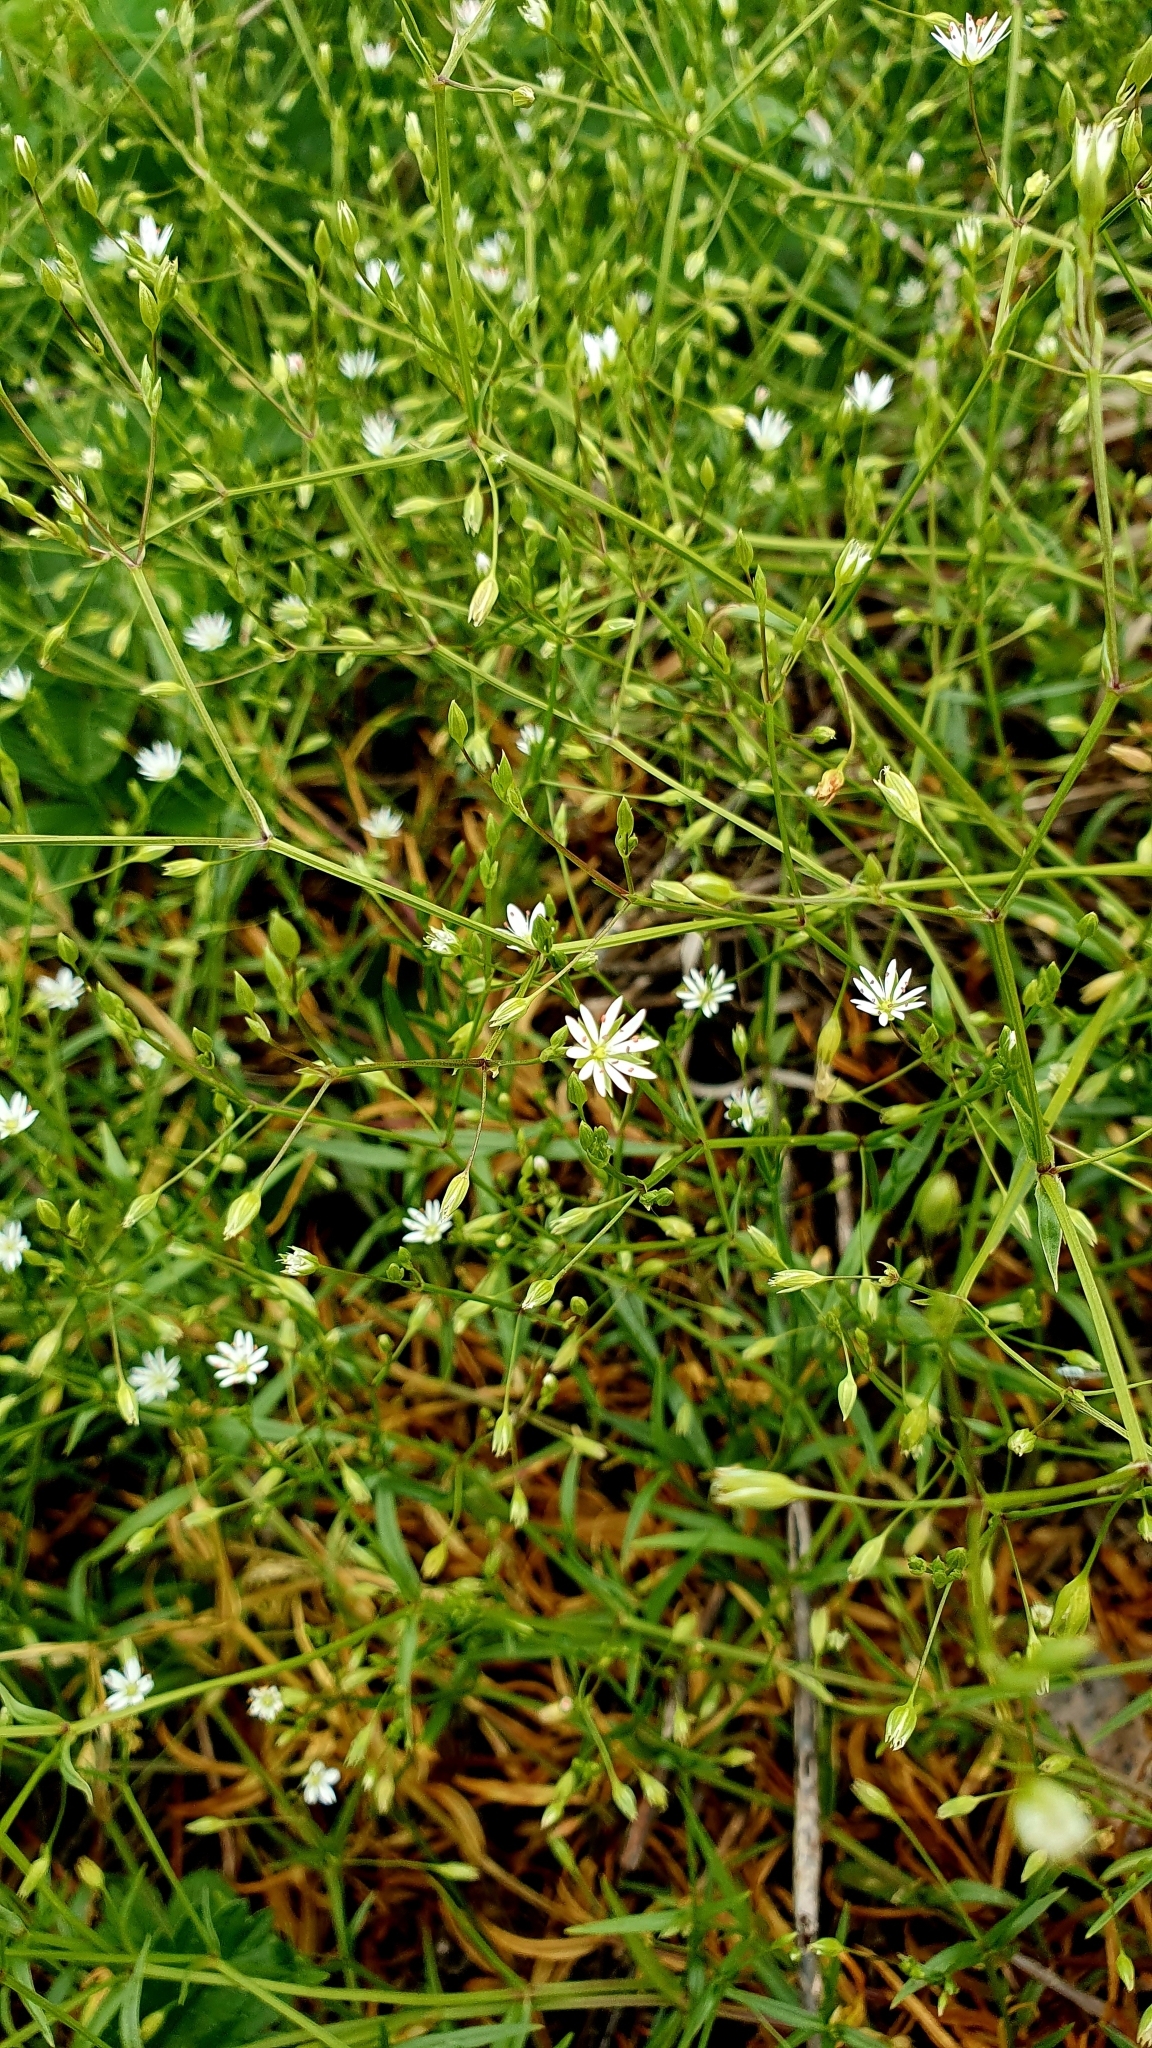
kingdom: Plantae
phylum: Tracheophyta
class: Magnoliopsida
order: Caryophyllales
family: Caryophyllaceae
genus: Stellaria
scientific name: Stellaria graminea
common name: Grass-like starwort
